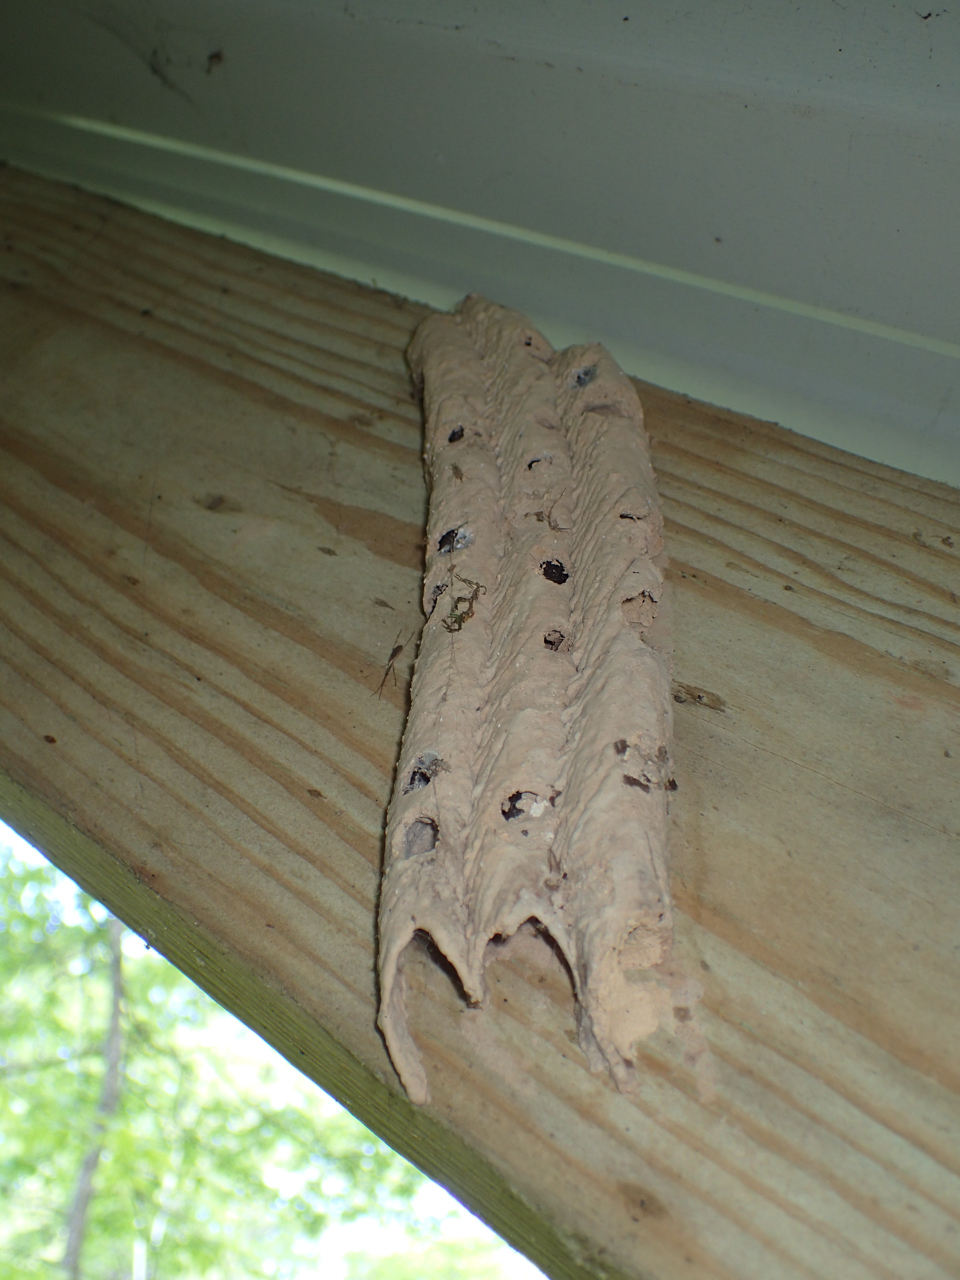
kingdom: Animalia
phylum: Arthropoda
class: Insecta
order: Hymenoptera
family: Crabronidae
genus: Trypoxylon
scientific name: Trypoxylon politum
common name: Organ-pipe mud-dauber wasp
